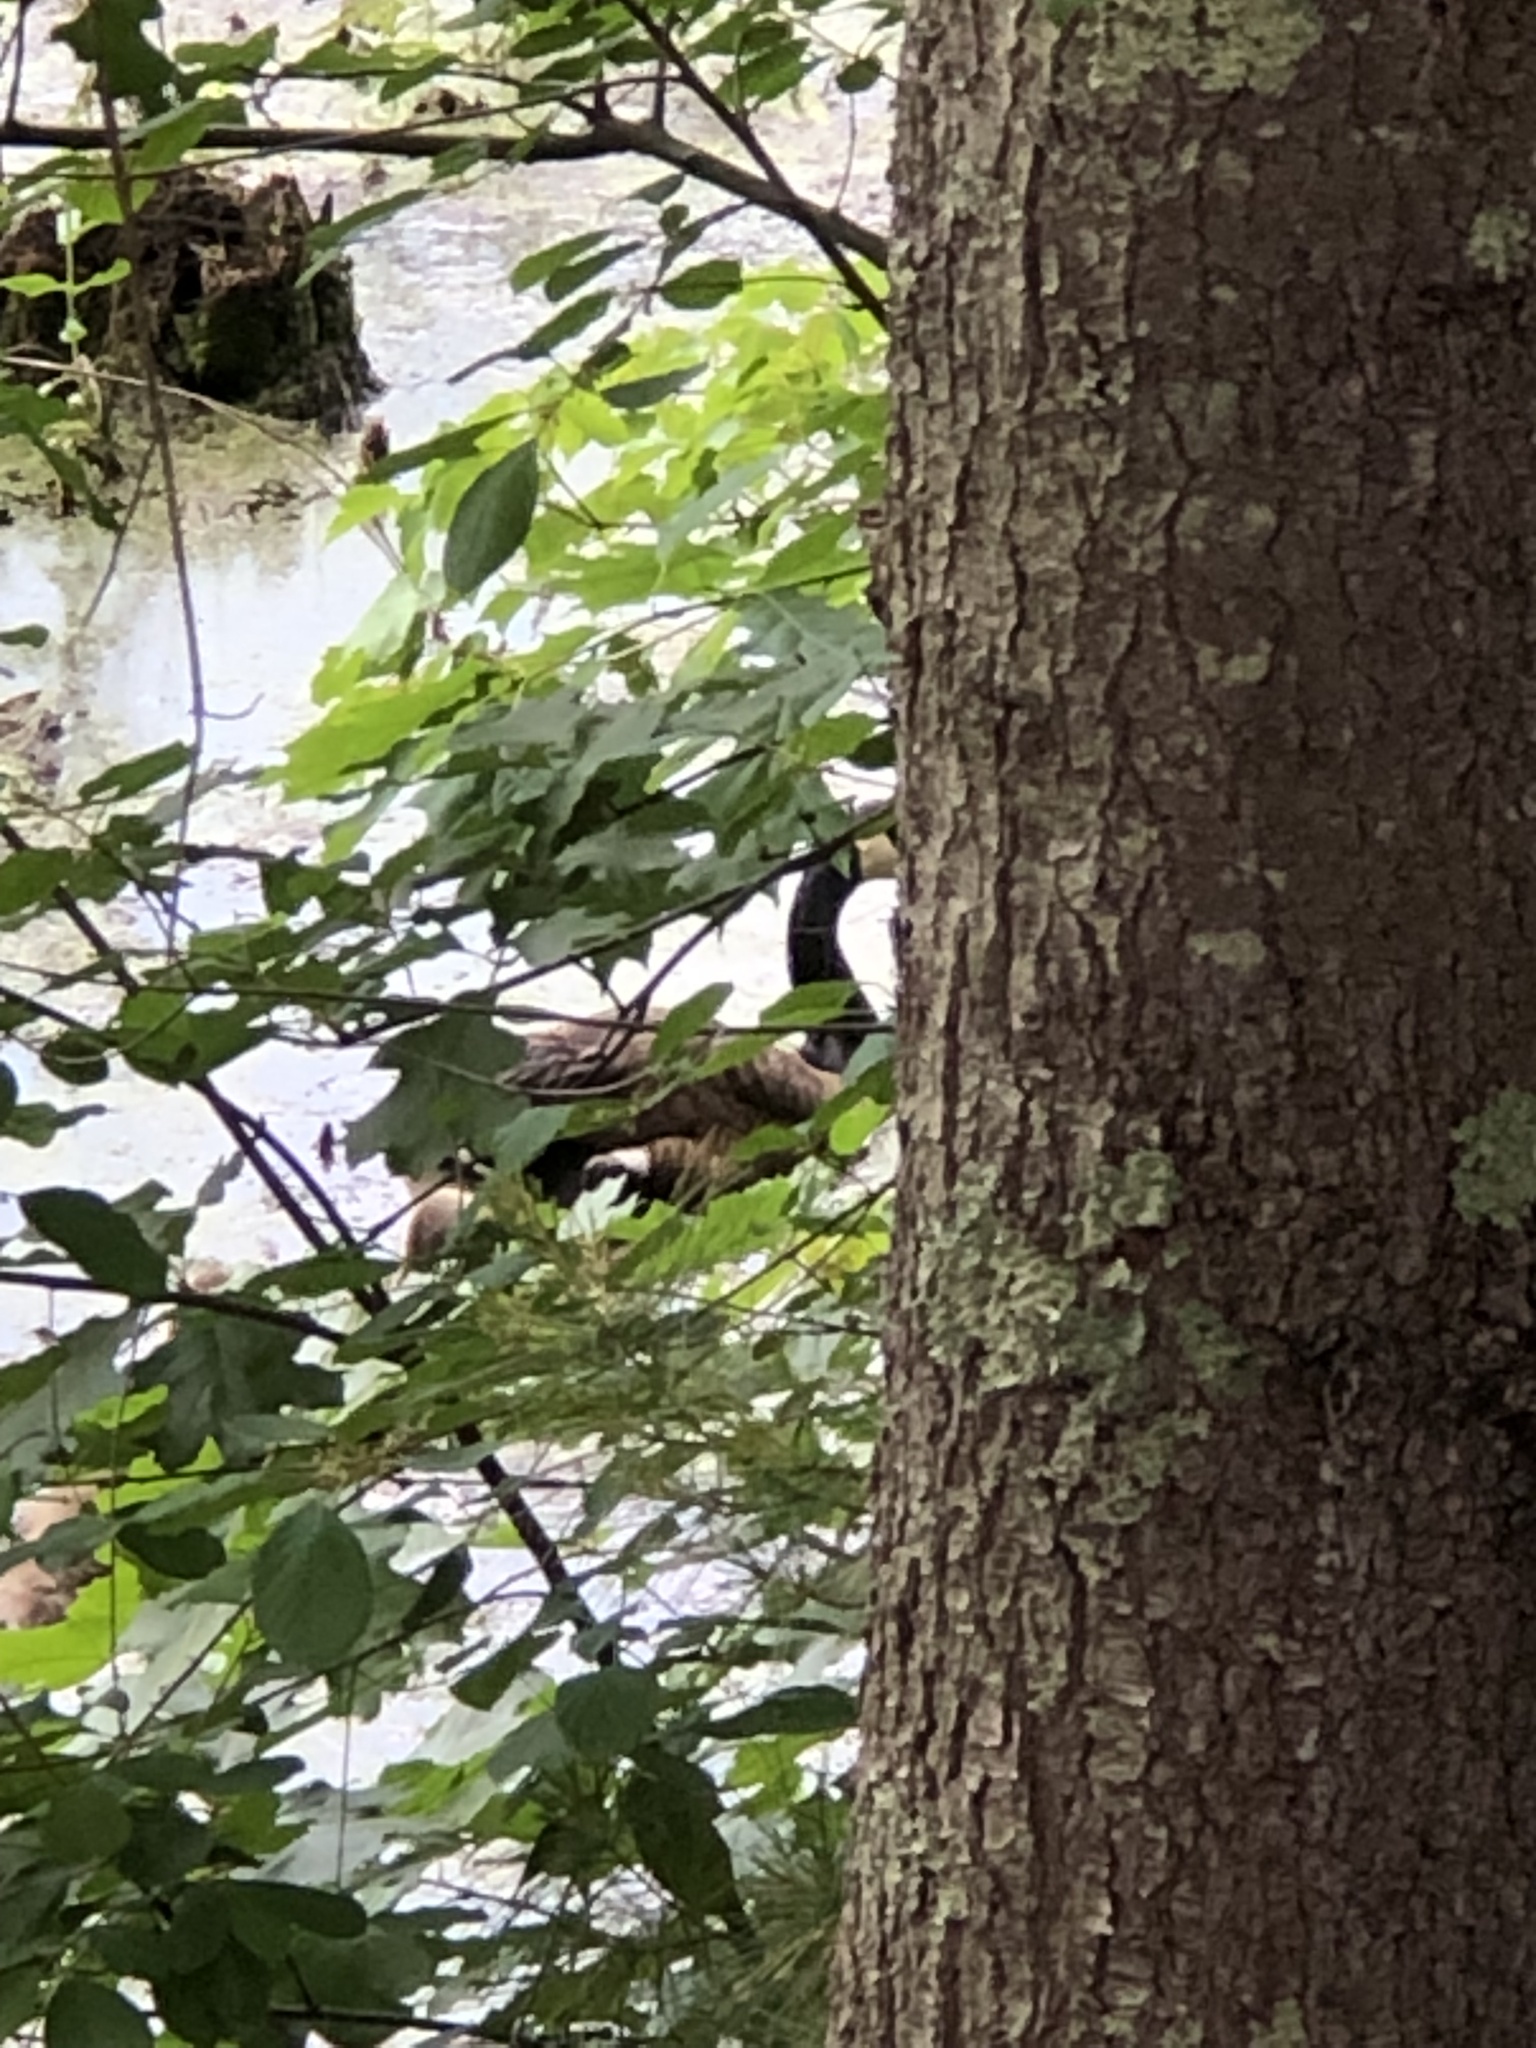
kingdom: Animalia
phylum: Chordata
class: Aves
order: Anseriformes
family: Anatidae
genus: Branta
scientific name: Branta canadensis
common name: Canada goose
